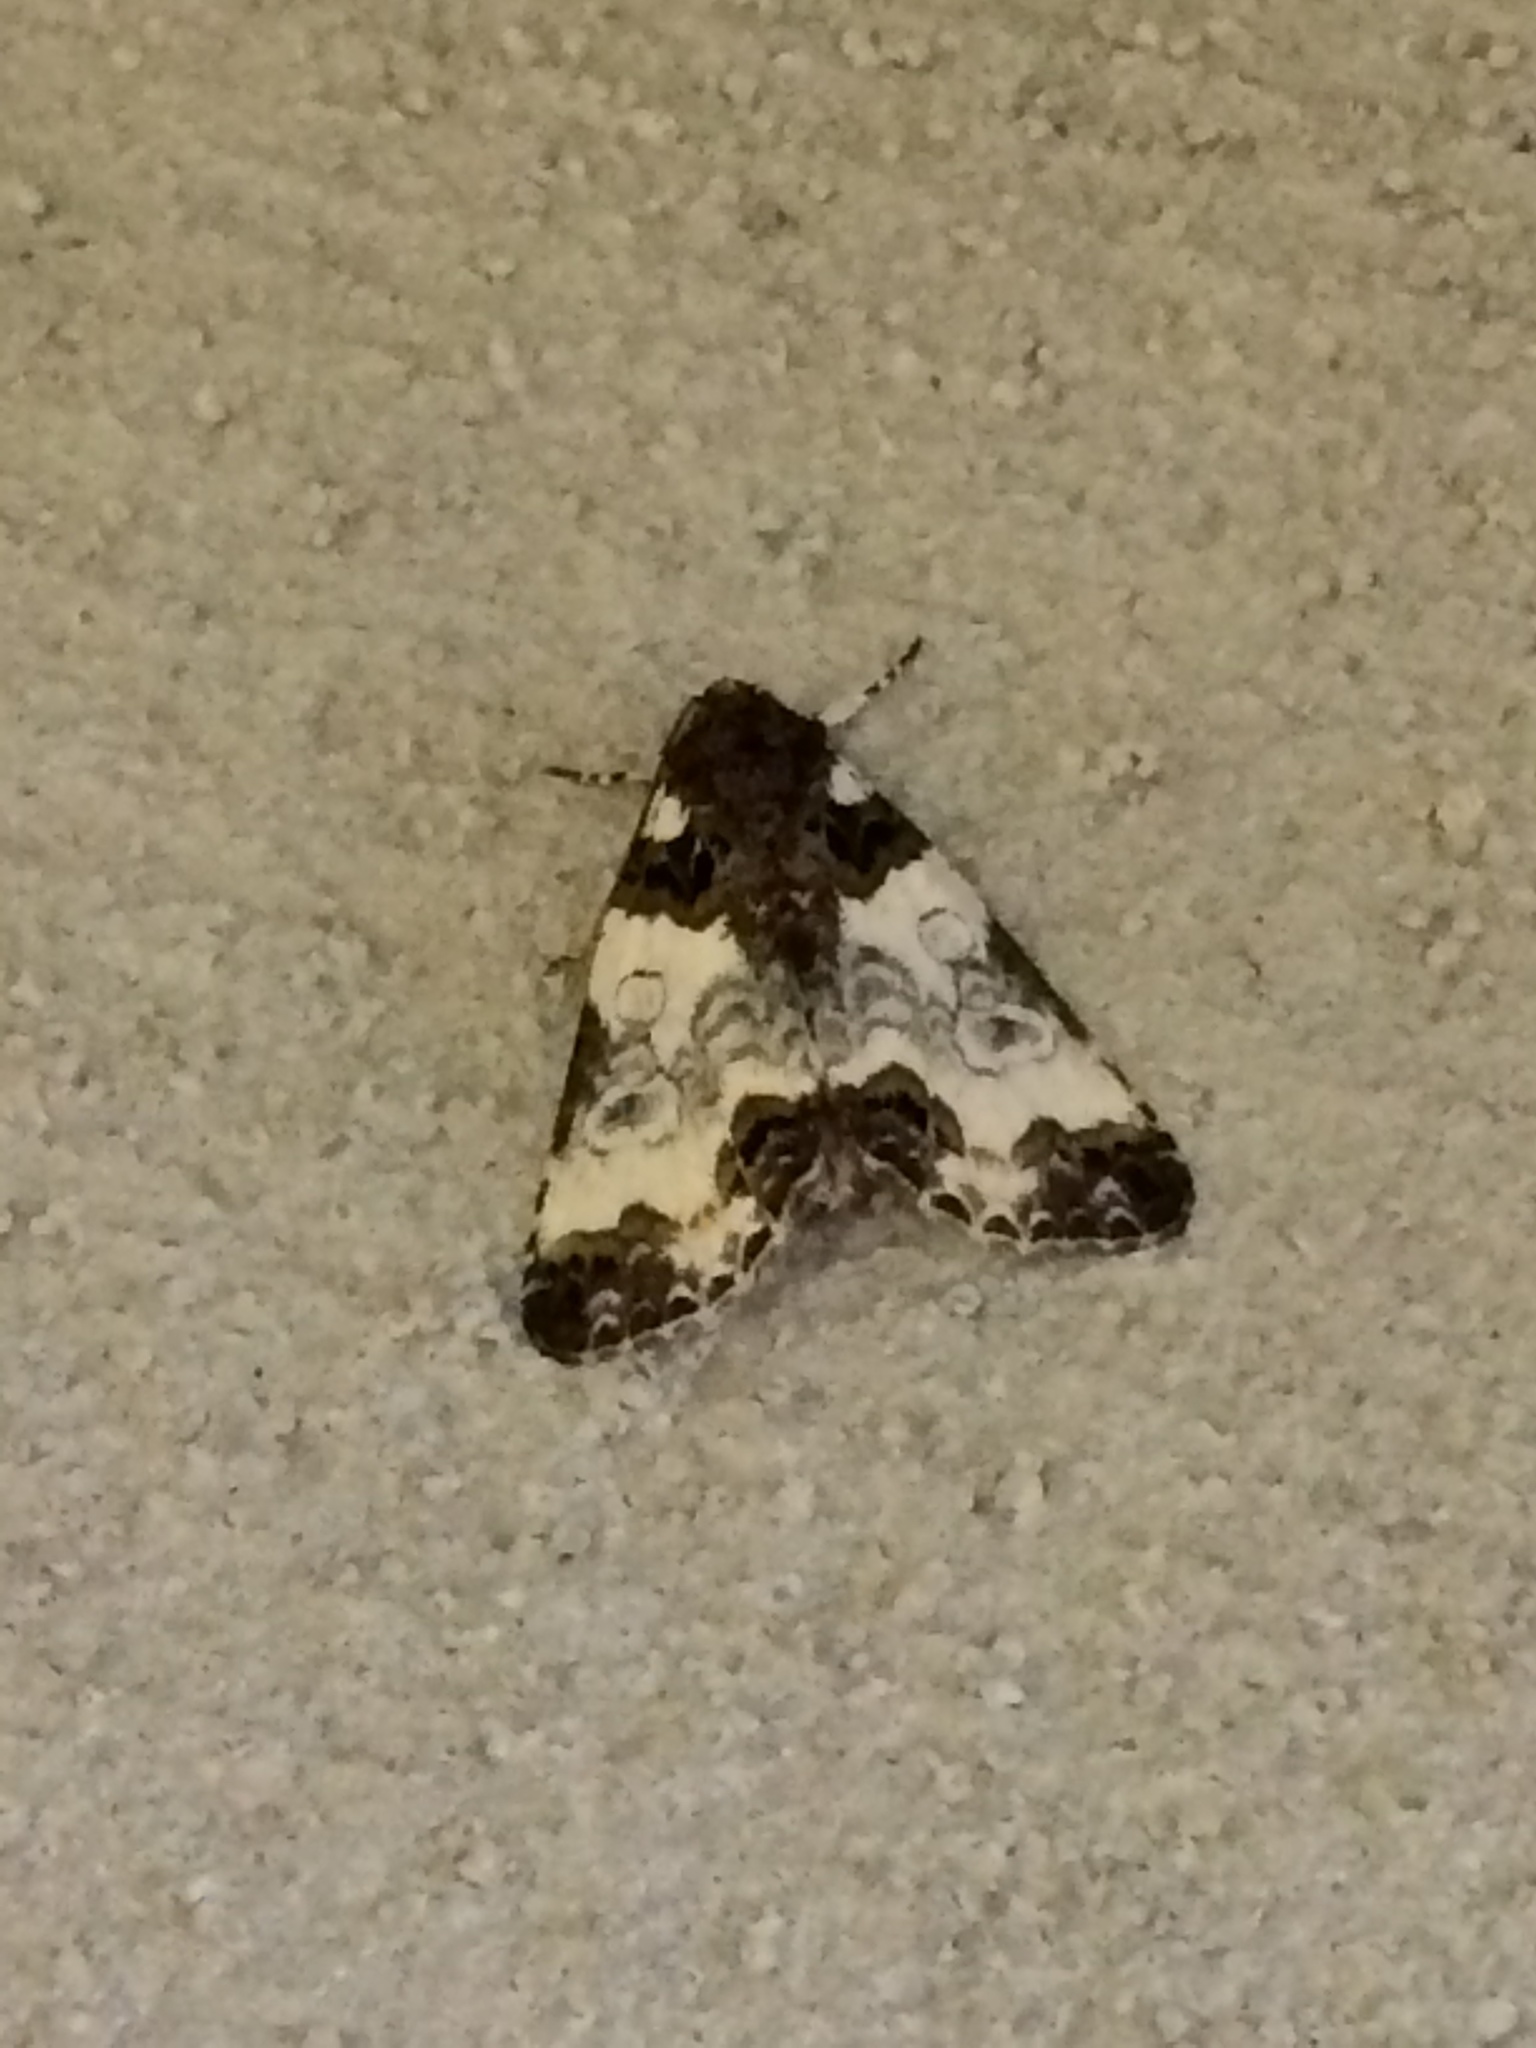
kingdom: Animalia
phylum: Arthropoda
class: Insecta
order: Lepidoptera
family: Noctuidae
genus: Cerma
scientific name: Cerma cerintha
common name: Tufted bird-dropping moth
